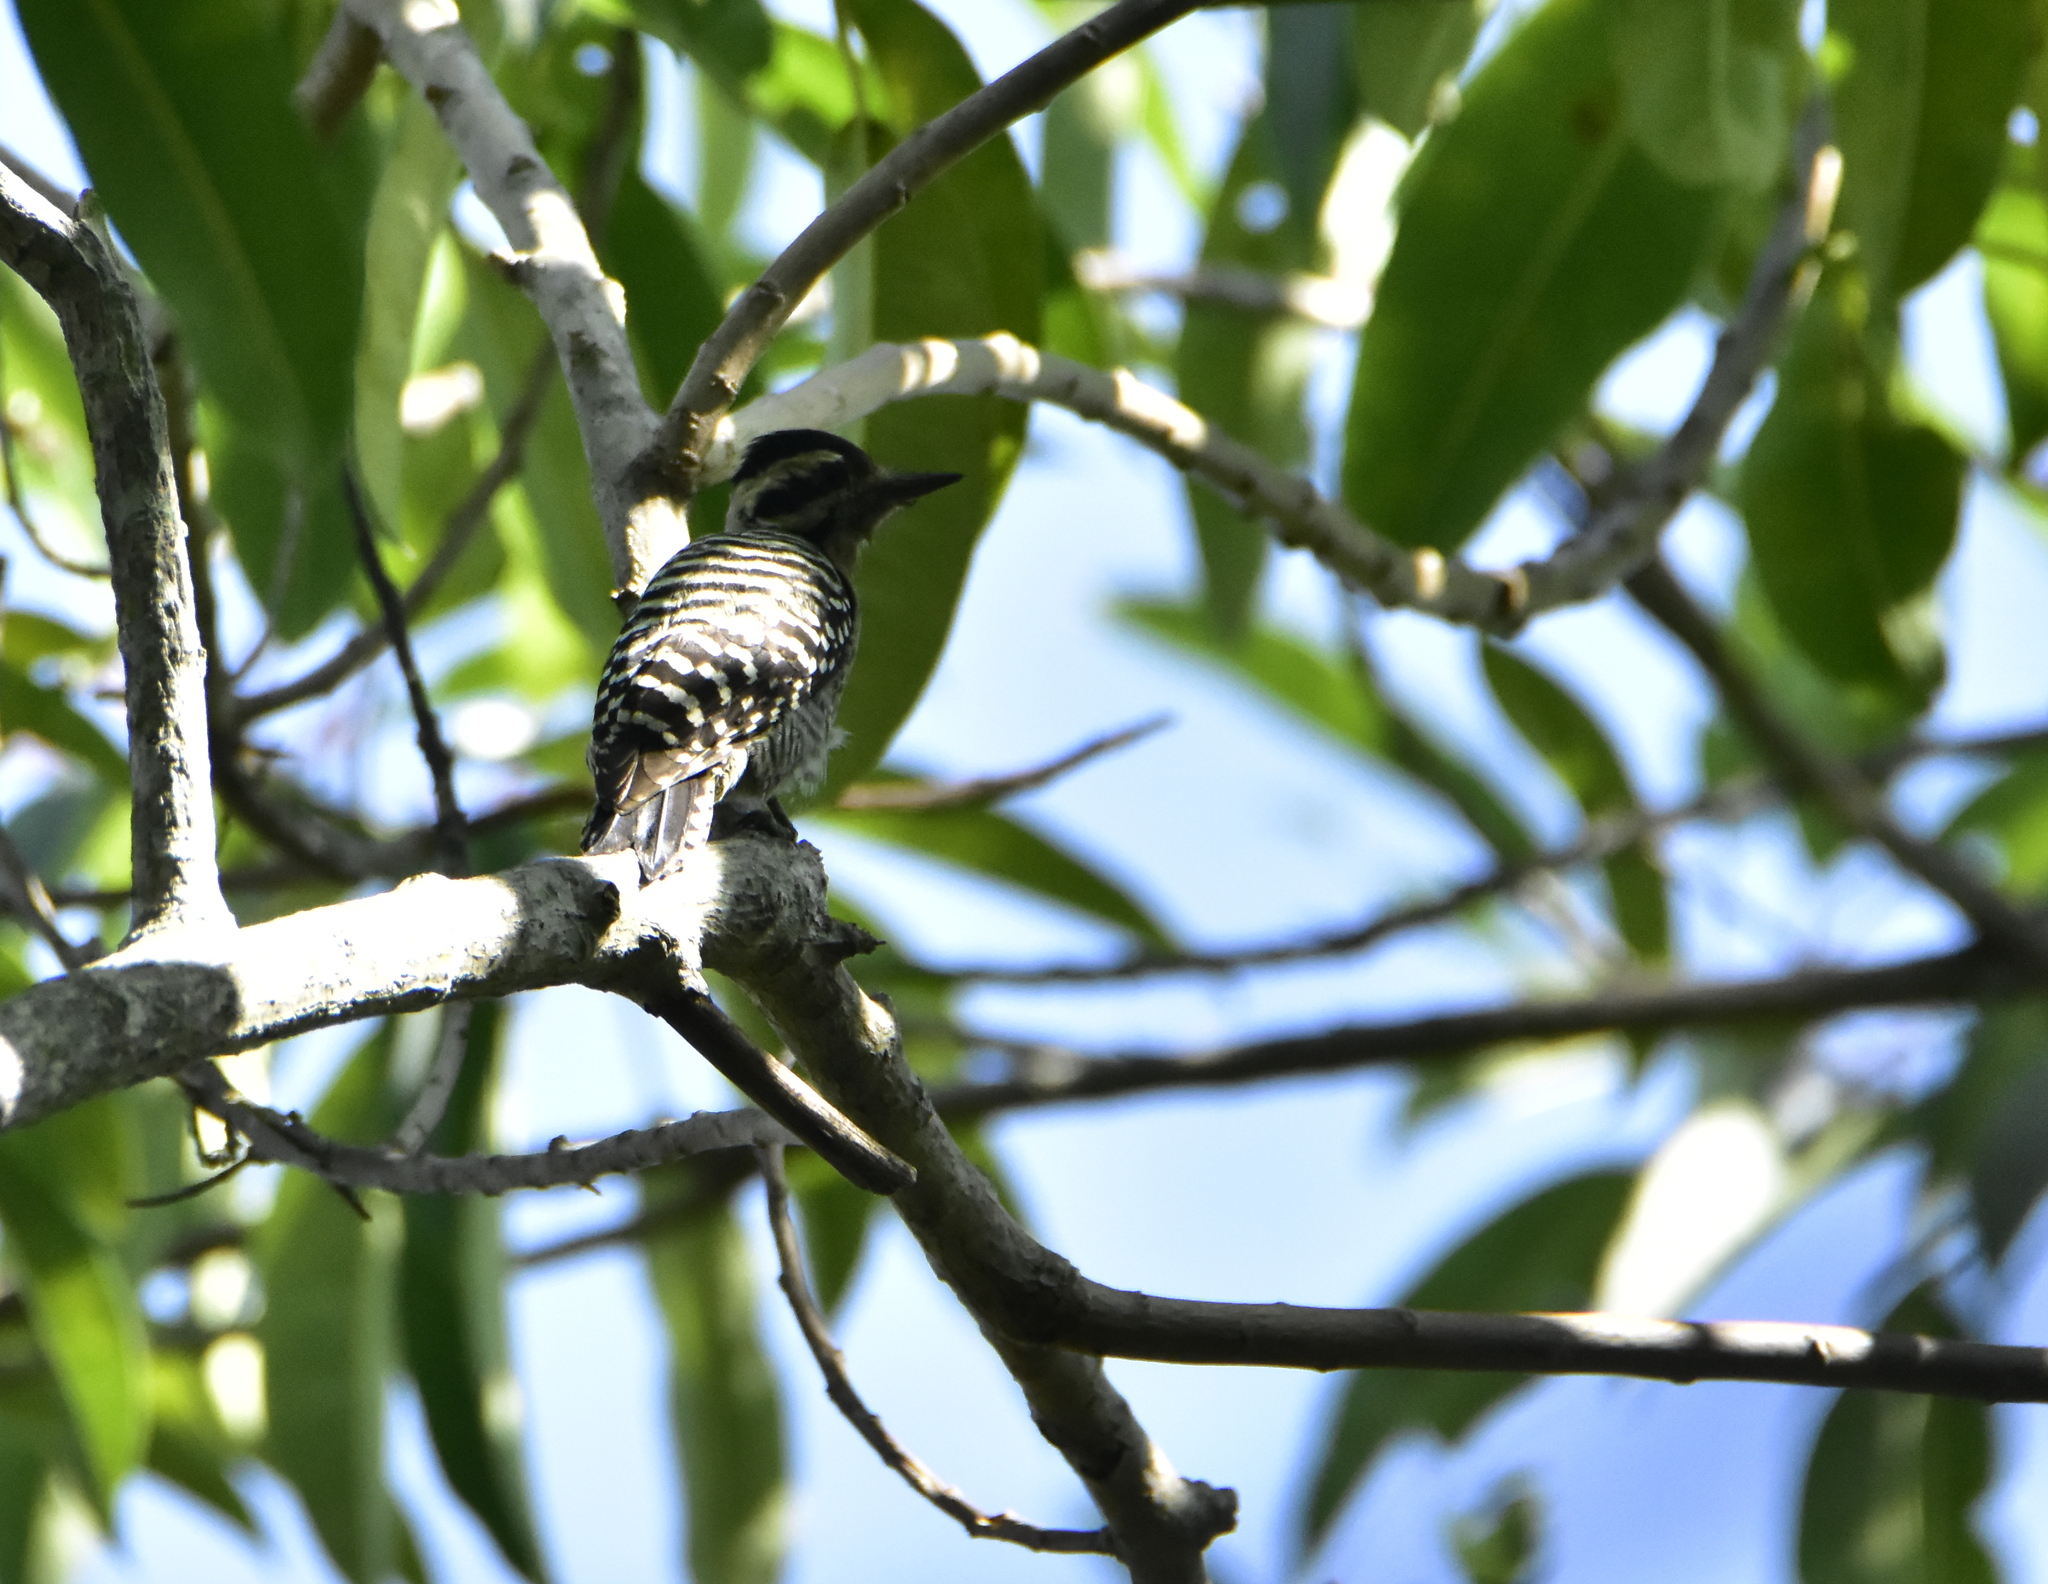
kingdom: Animalia
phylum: Chordata
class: Aves
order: Piciformes
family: Picidae
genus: Dryobates
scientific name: Dryobates scalaris
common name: Ladder-backed woodpecker
